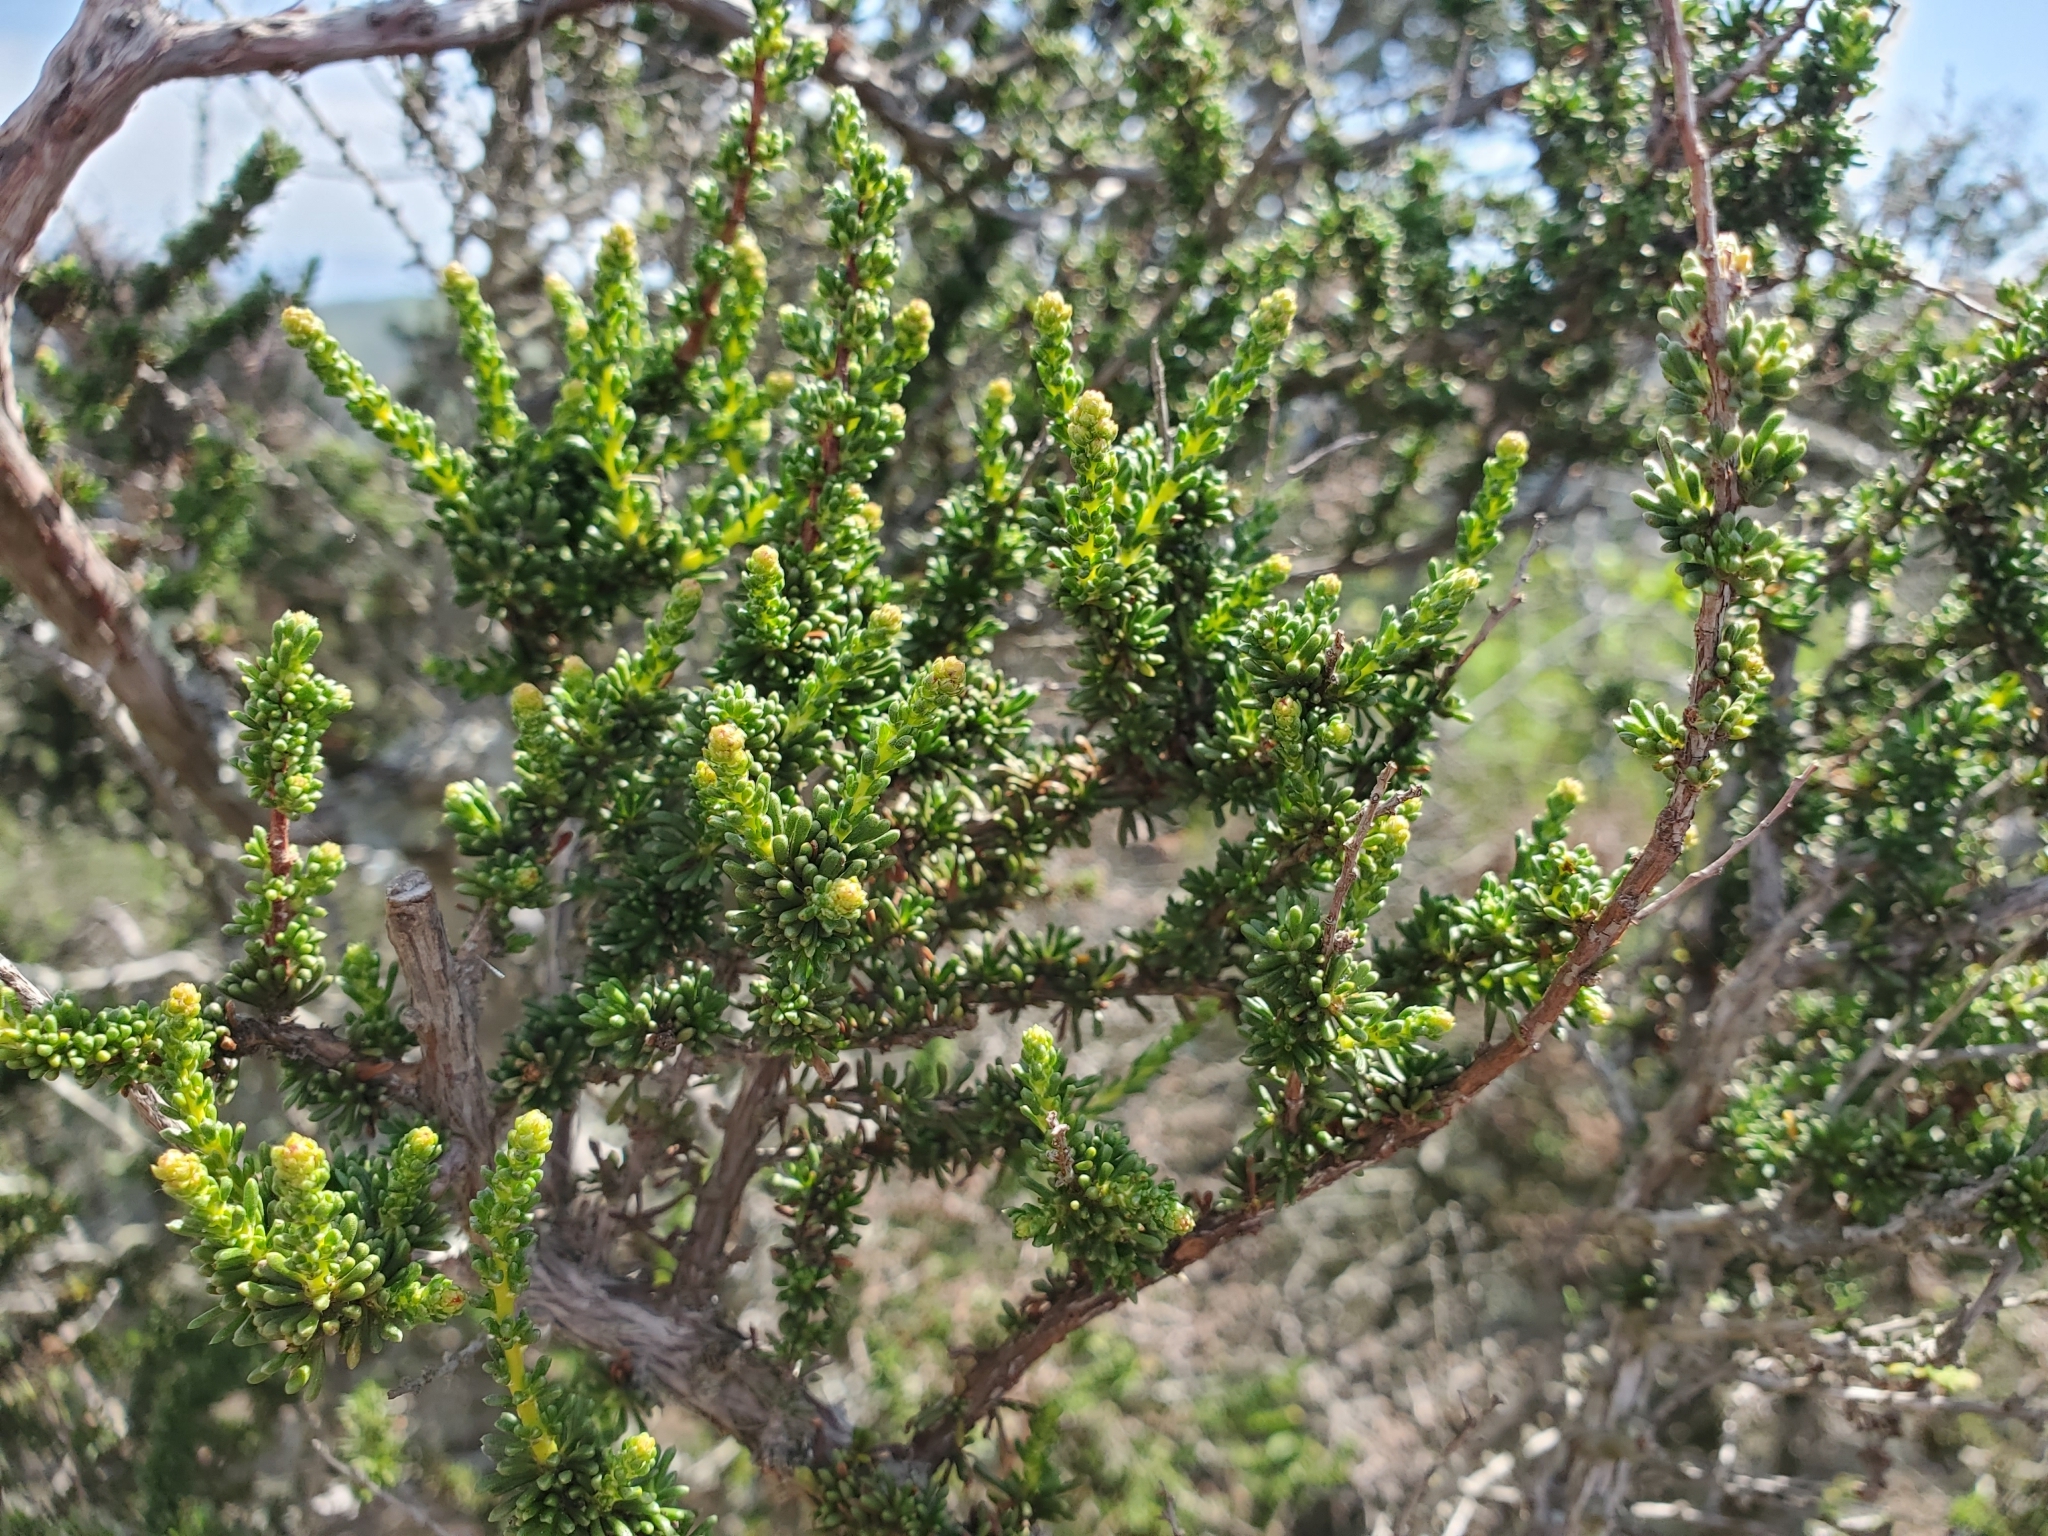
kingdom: Plantae
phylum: Tracheophyta
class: Magnoliopsida
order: Rosales
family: Rosaceae
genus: Adenostoma
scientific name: Adenostoma fasciculatum
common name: Chamise
